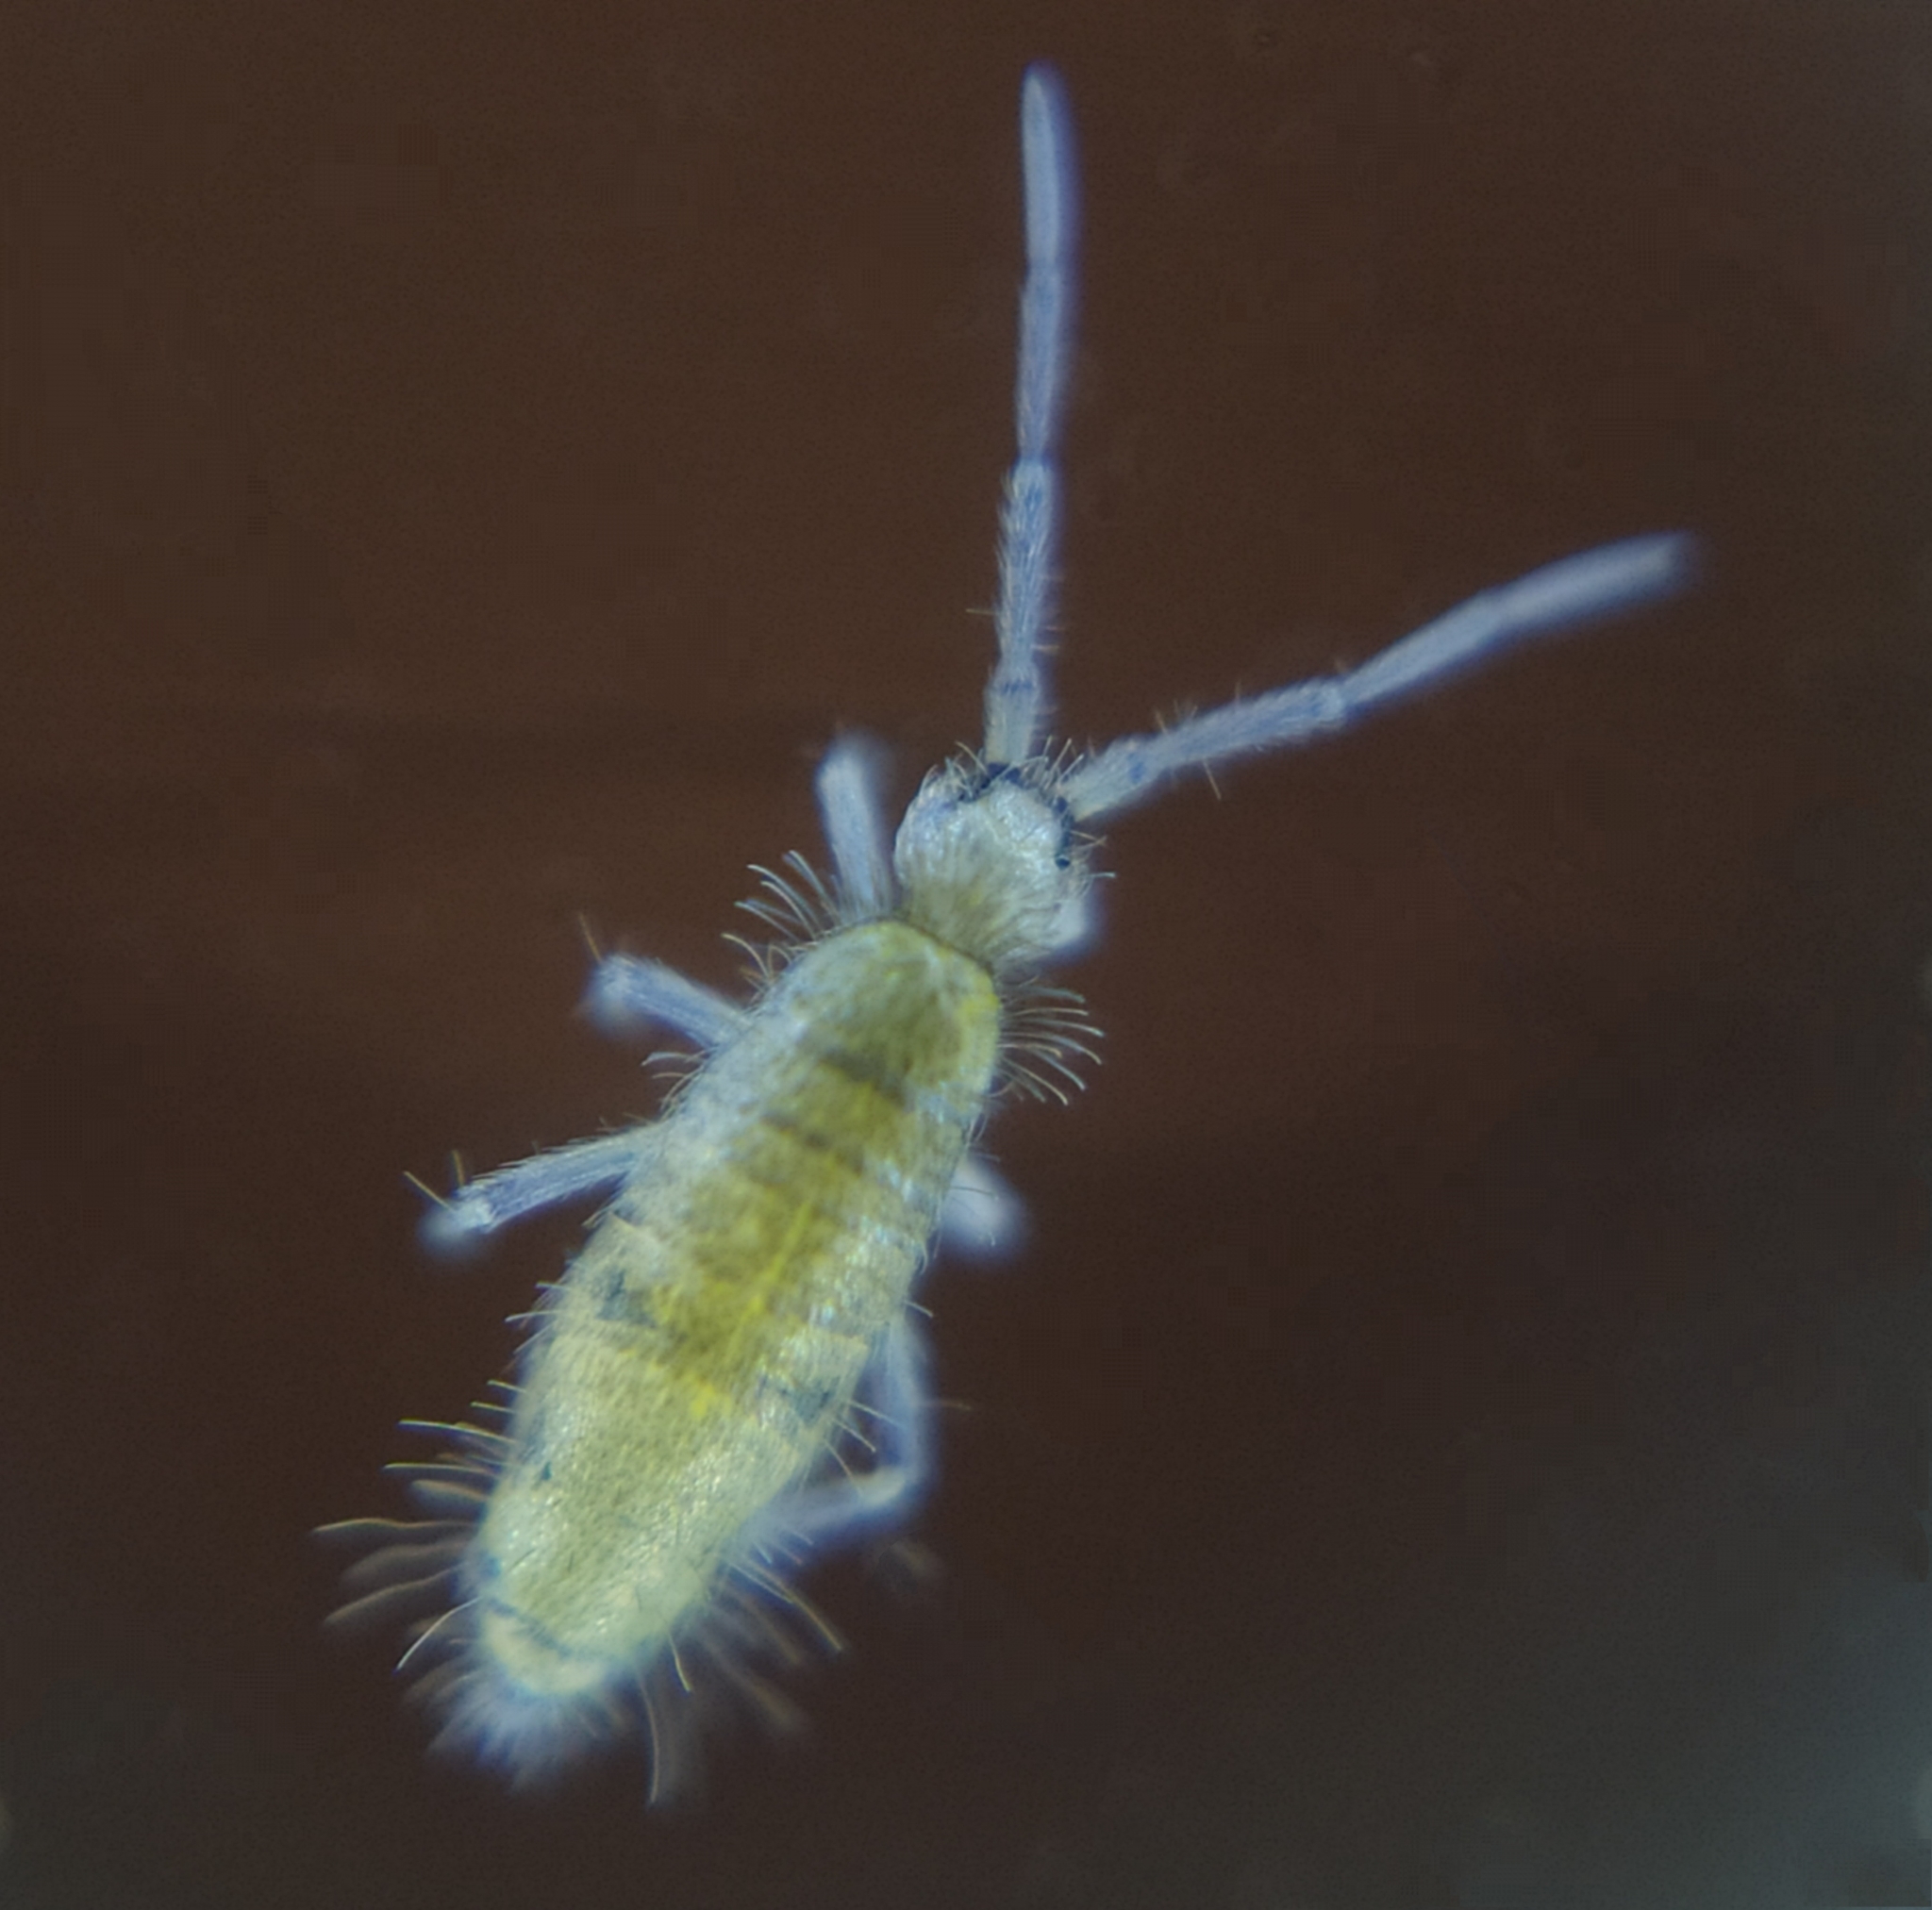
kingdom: Animalia
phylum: Arthropoda
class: Collembola
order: Entomobryomorpha
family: Entomobryidae
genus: Willowsia
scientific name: Willowsia nigromaculata
